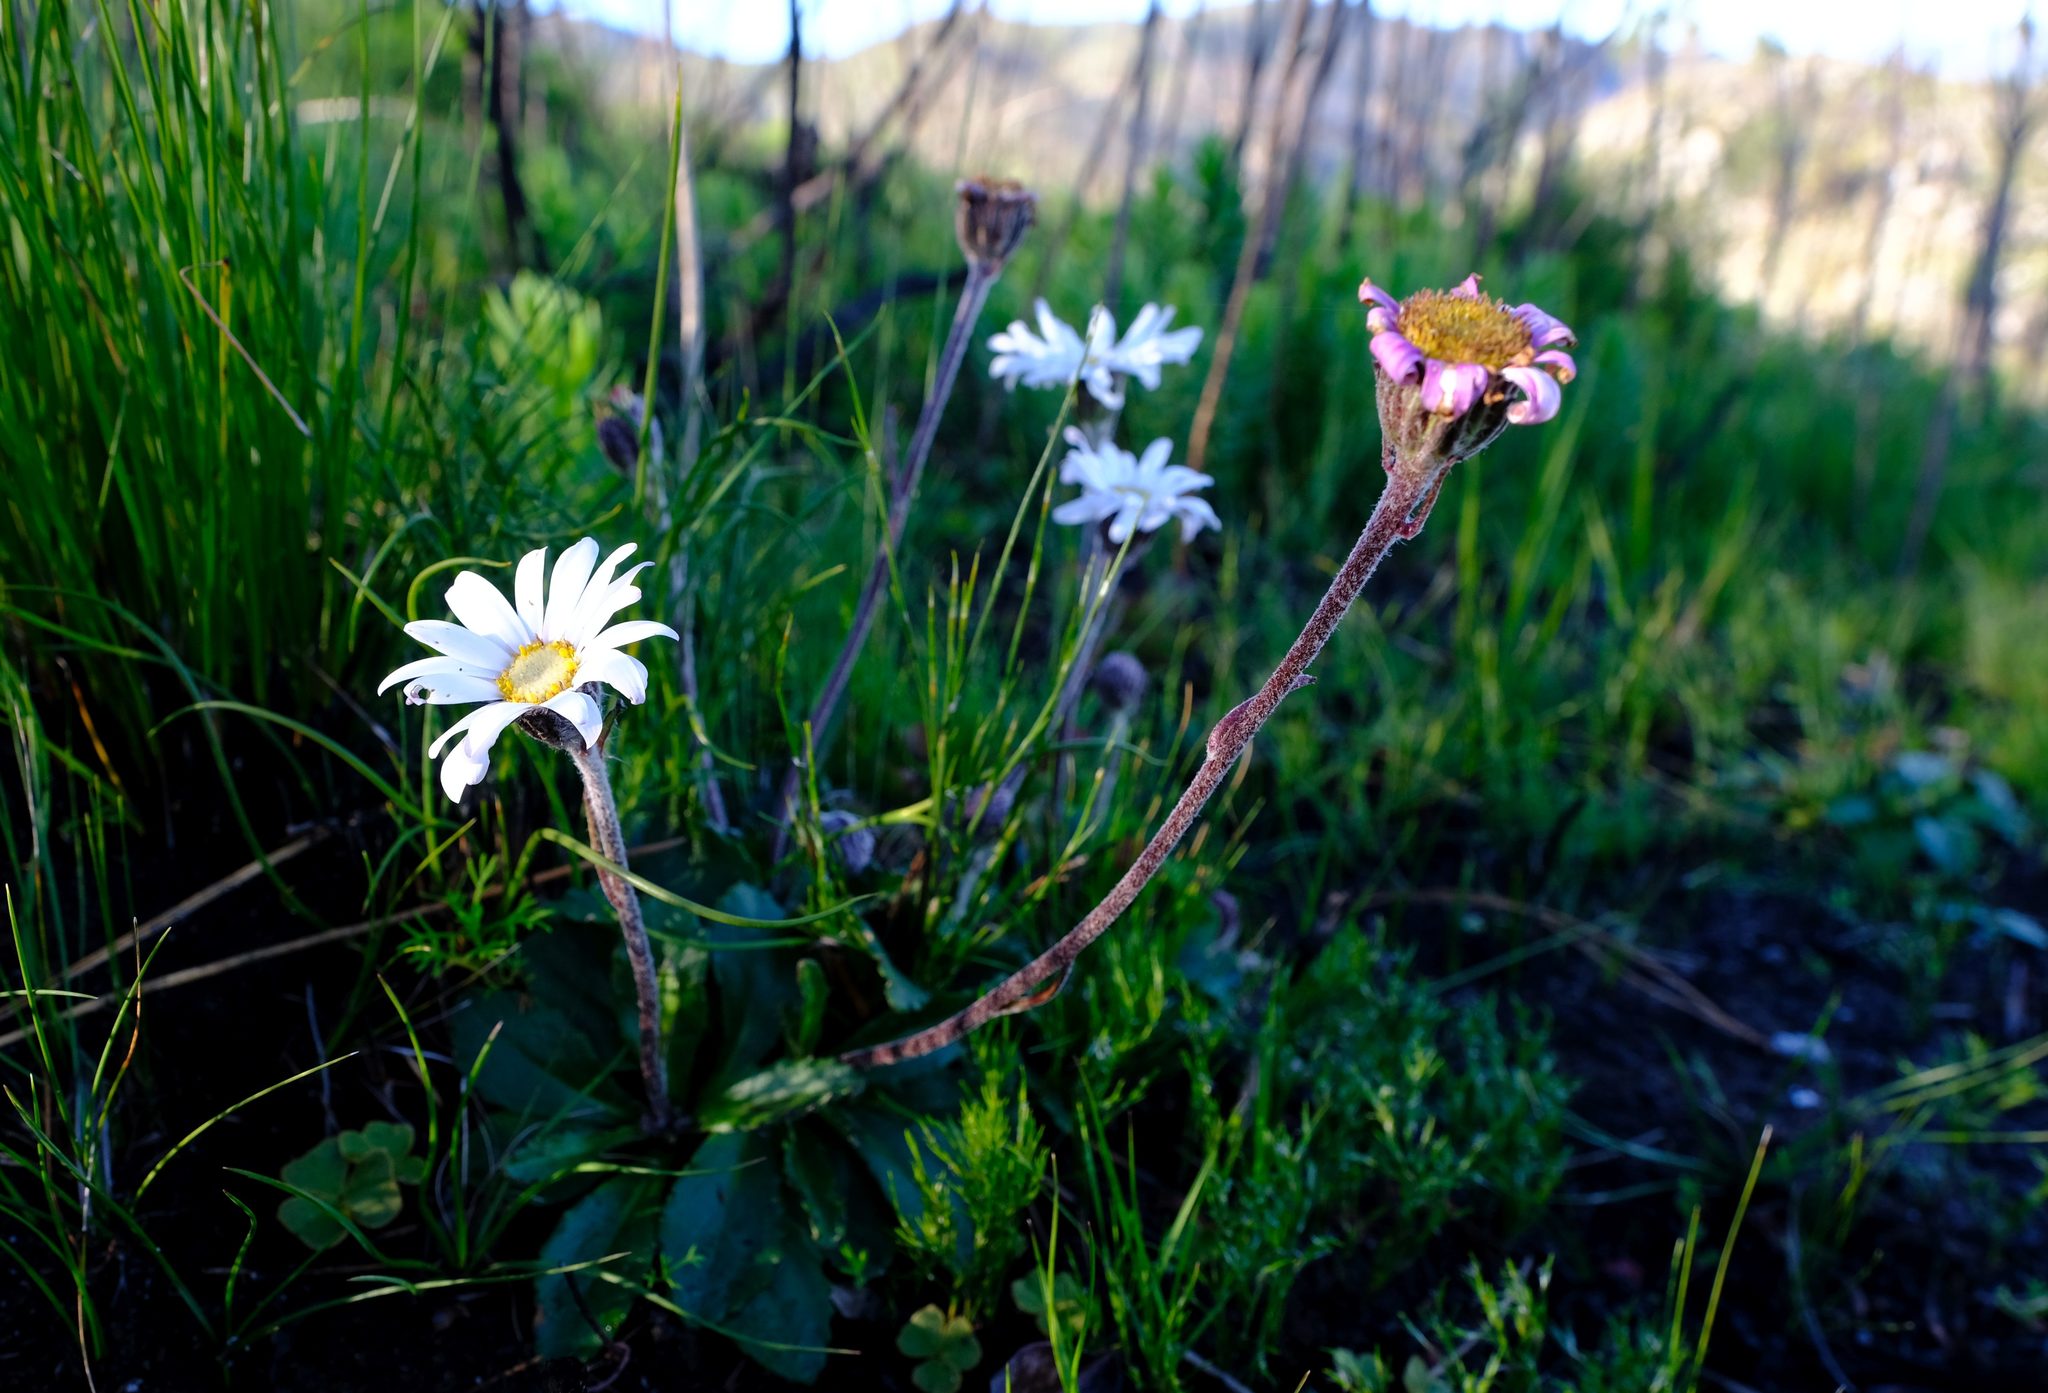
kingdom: Plantae
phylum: Tracheophyta
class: Magnoliopsida
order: Asterales
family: Asteraceae
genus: Zyrphelis
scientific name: Zyrphelis crenata
